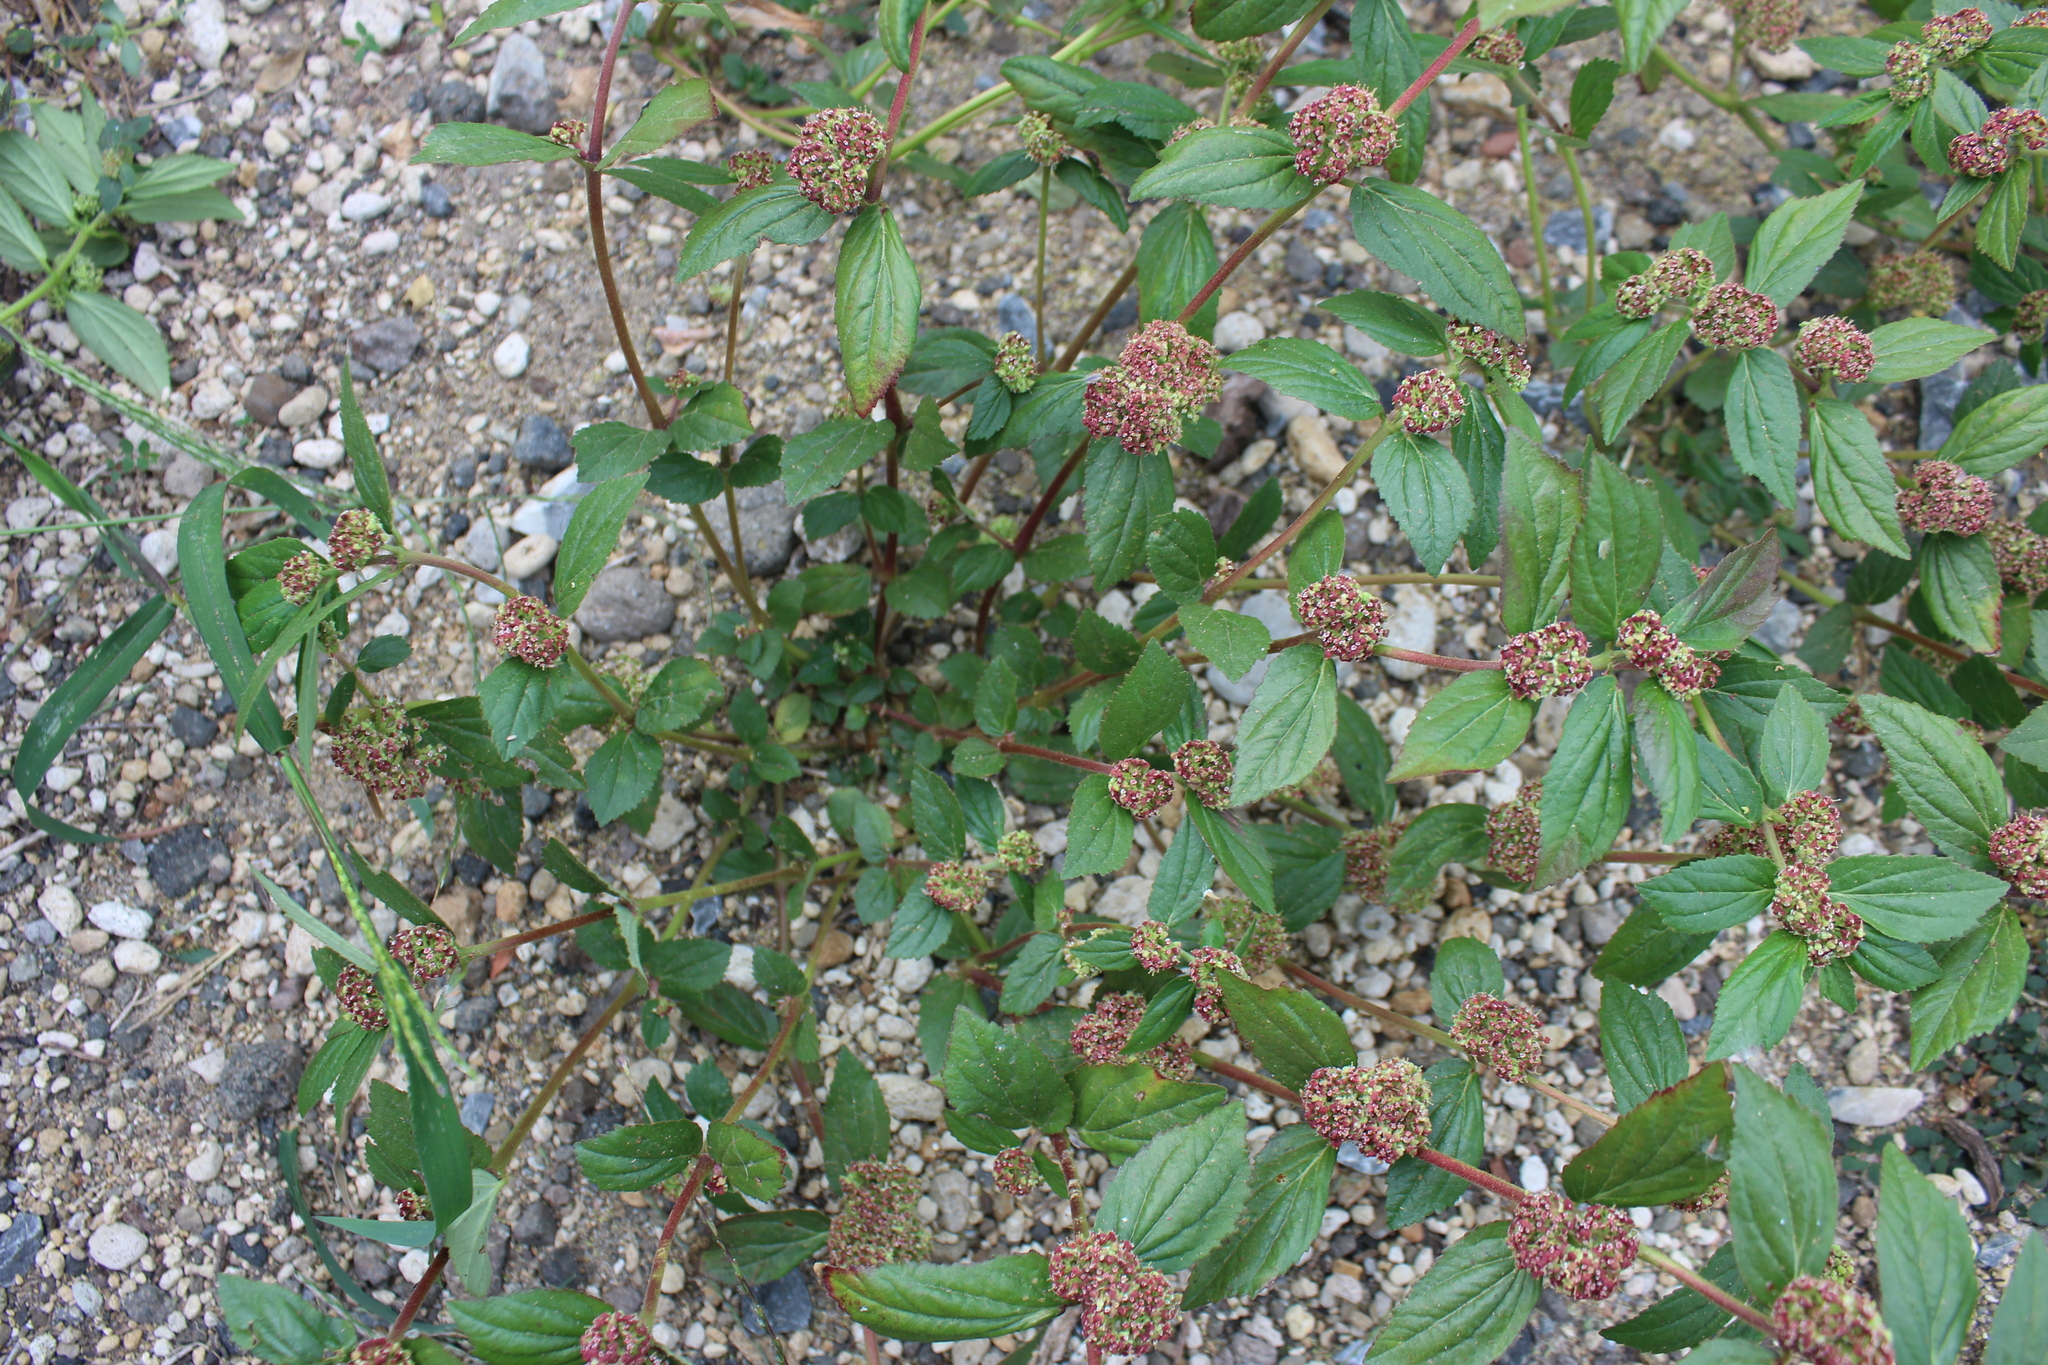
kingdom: Plantae
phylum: Tracheophyta
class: Magnoliopsida
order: Malpighiales
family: Euphorbiaceae
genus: Euphorbia
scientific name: Euphorbia hirta
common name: Pillpod sandmat
